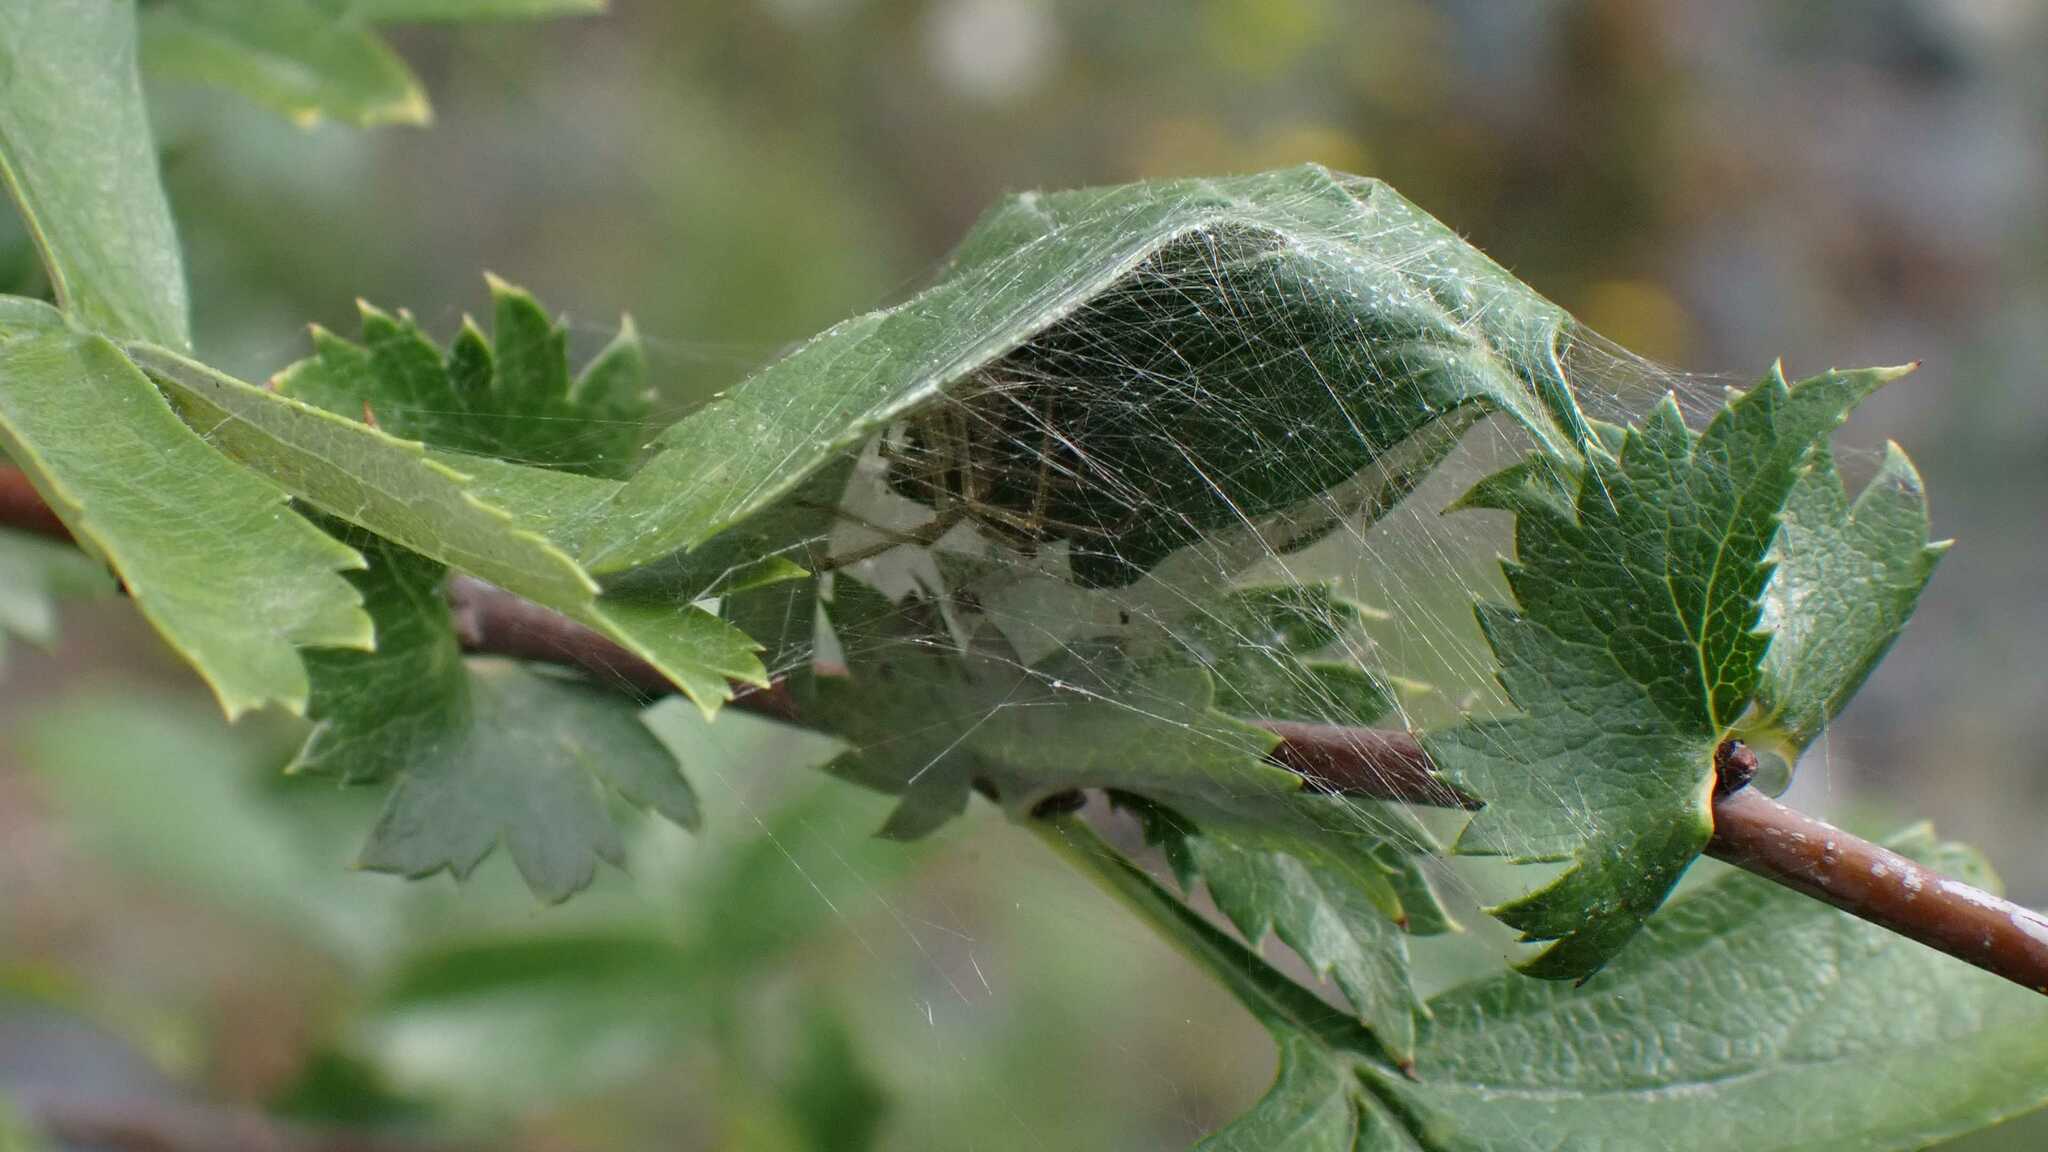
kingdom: Animalia
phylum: Arthropoda
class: Arachnida
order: Araneae
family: Theridiidae
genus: Enoplognatha
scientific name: Enoplognatha
